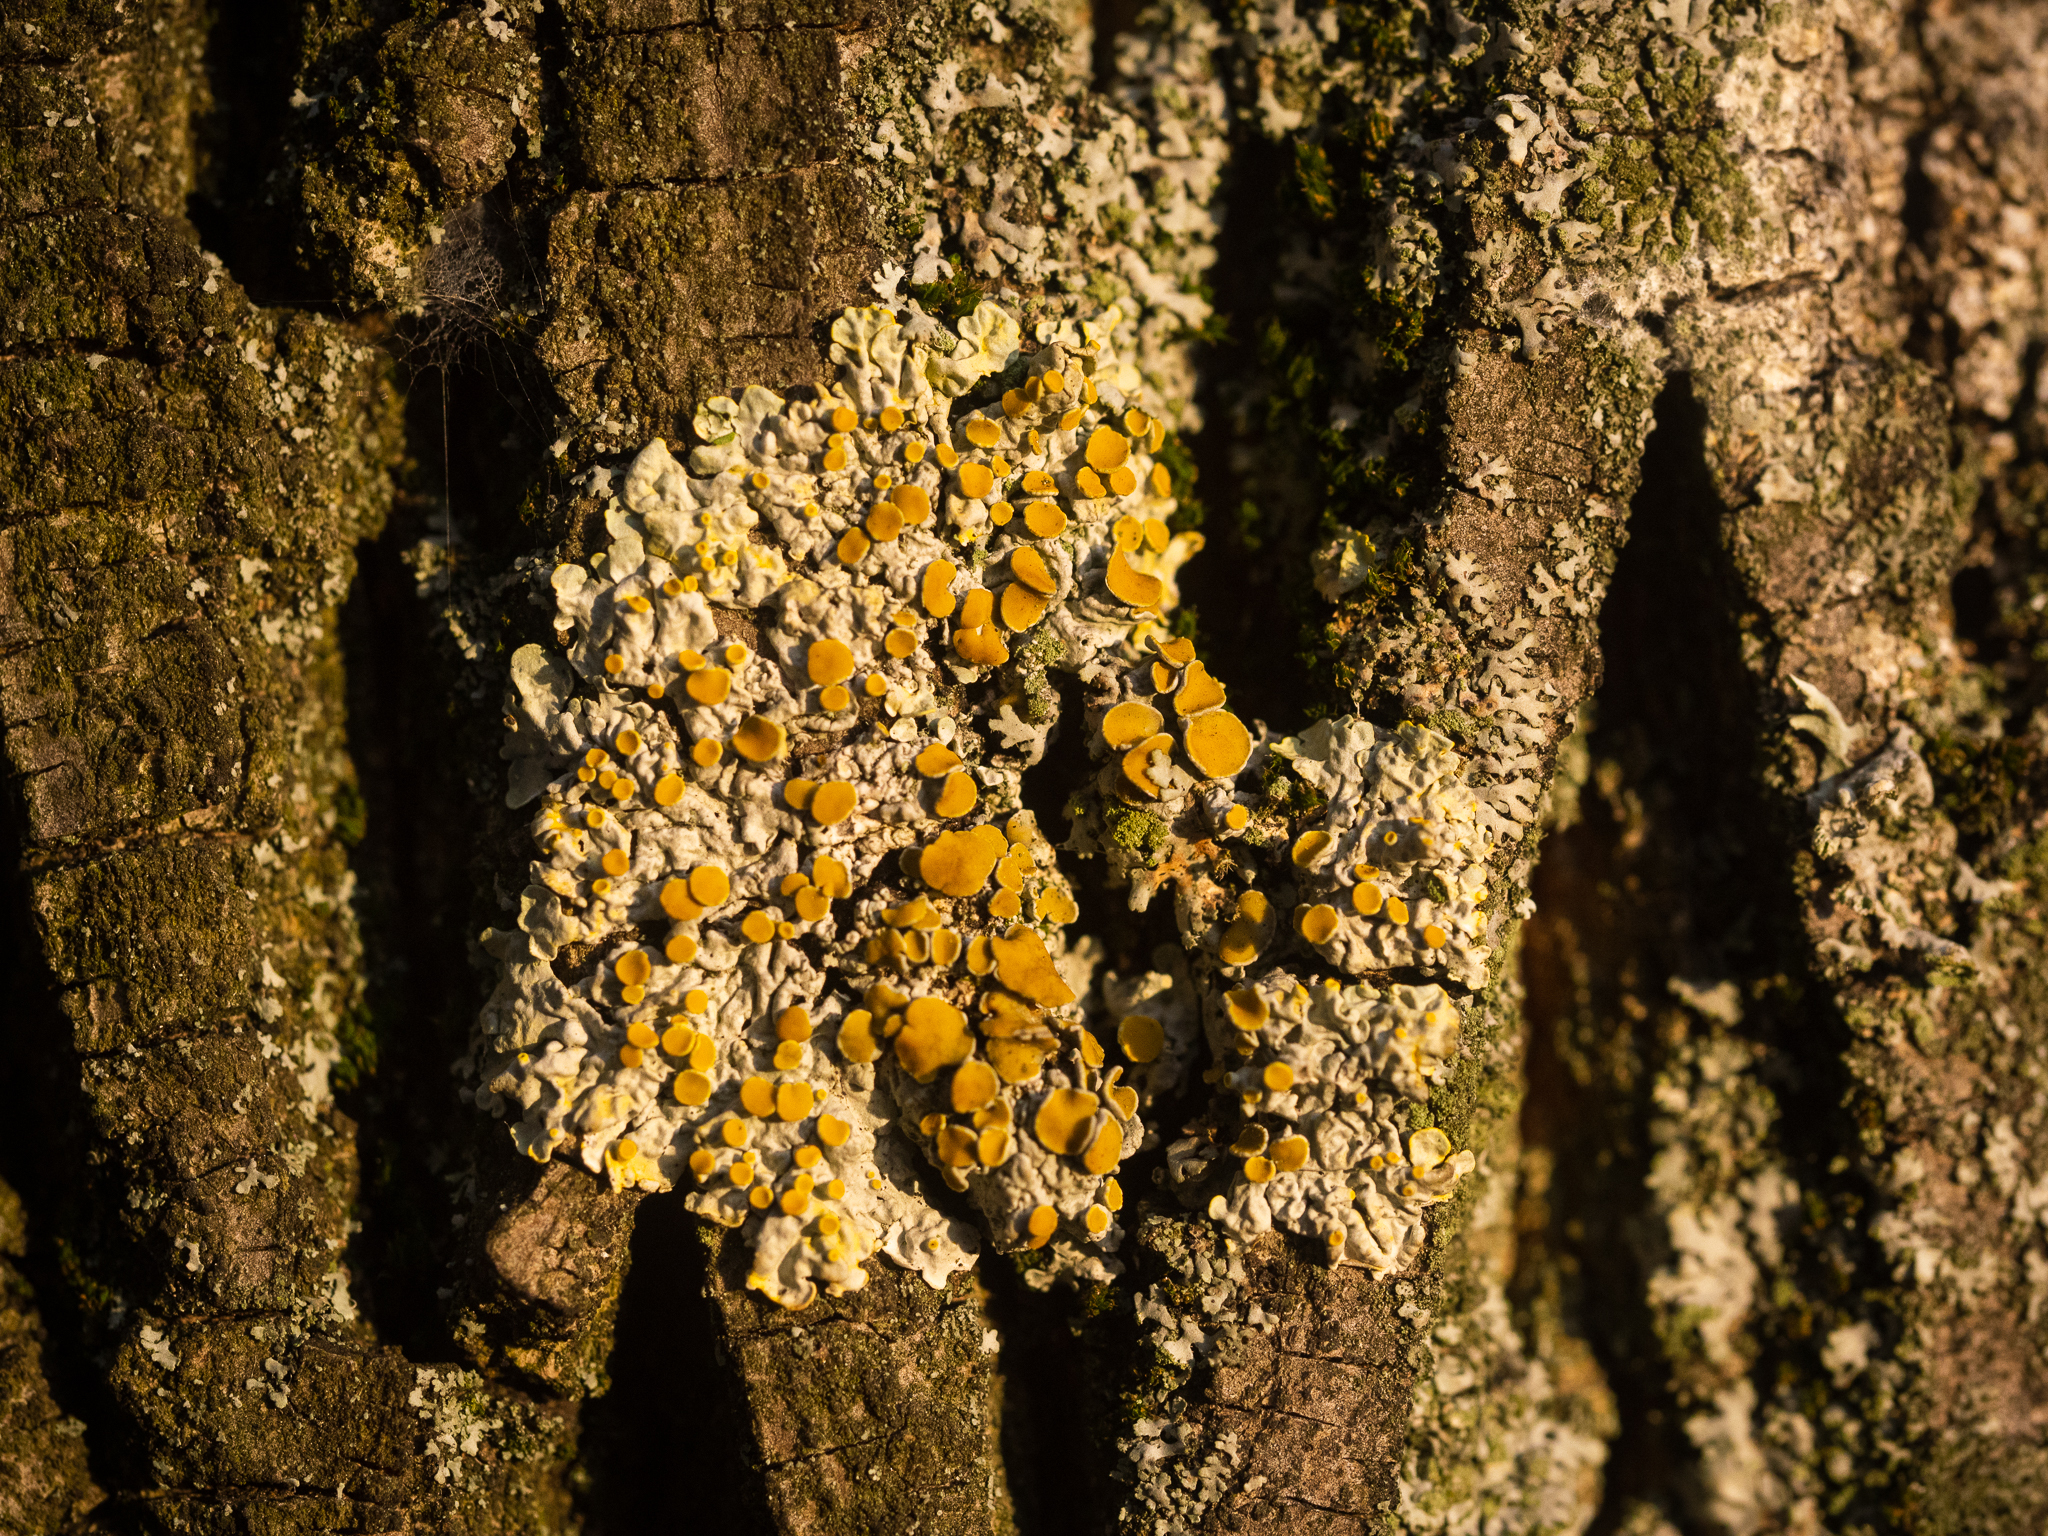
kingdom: Fungi
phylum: Ascomycota
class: Lecanoromycetes
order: Teloschistales
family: Teloschistaceae
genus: Xanthoria
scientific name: Xanthoria parietina
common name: Common orange lichen
